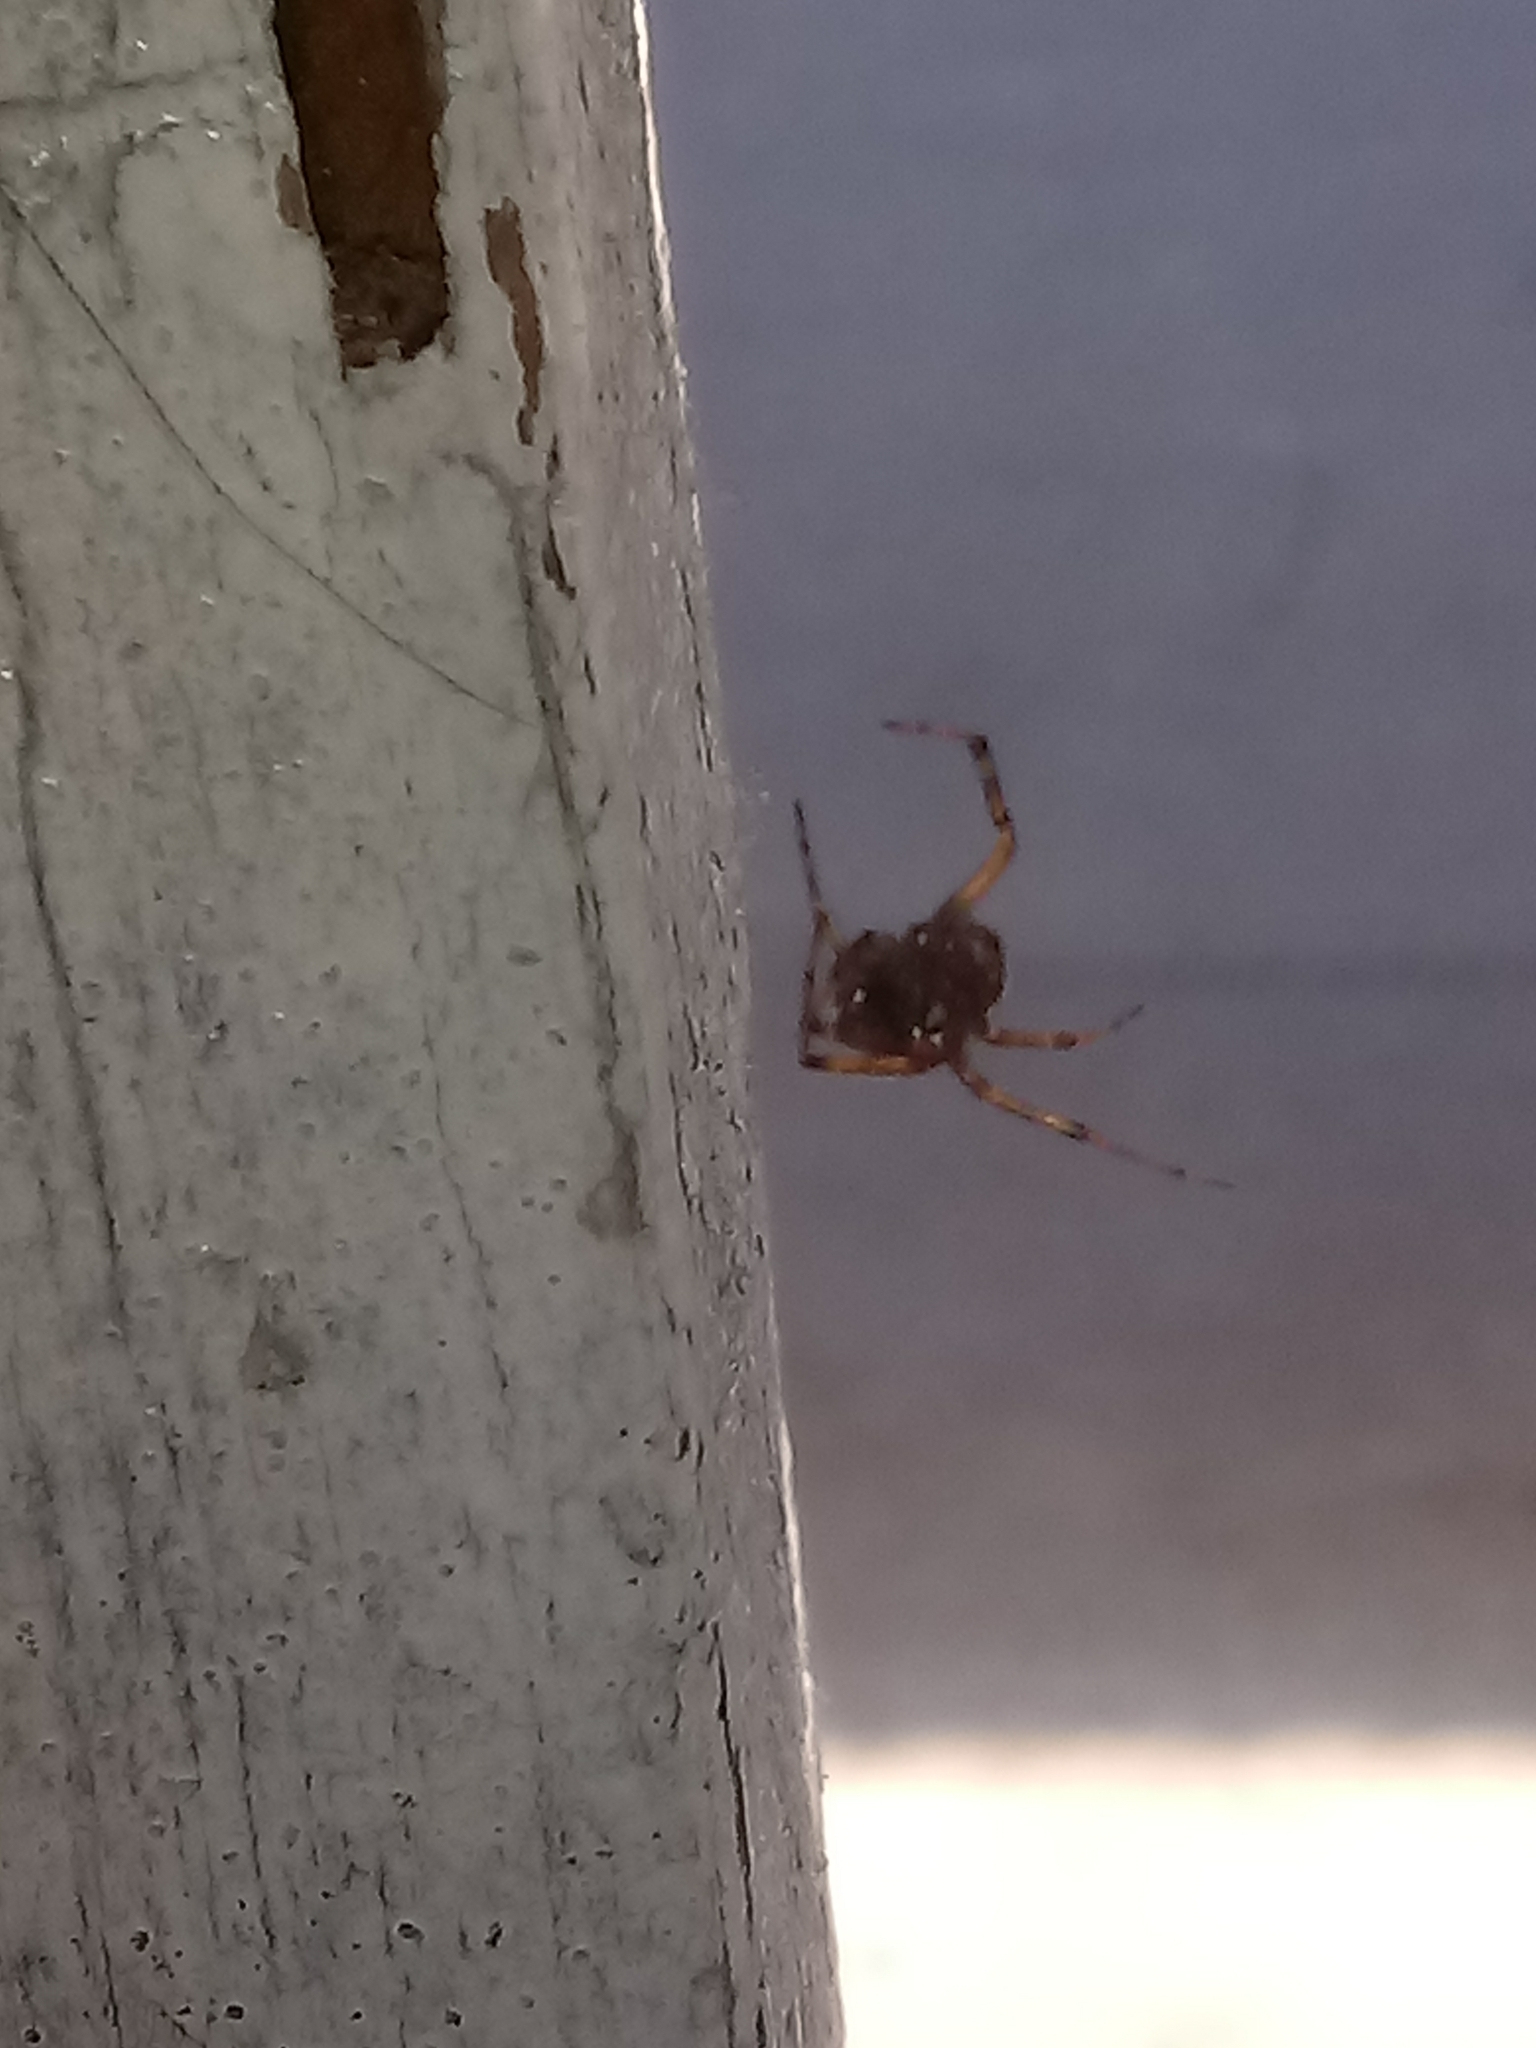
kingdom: Animalia
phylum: Arthropoda
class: Arachnida
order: Araneae
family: Theridiidae
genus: Steatoda
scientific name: Steatoda nobilis
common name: Cobweb weaver
